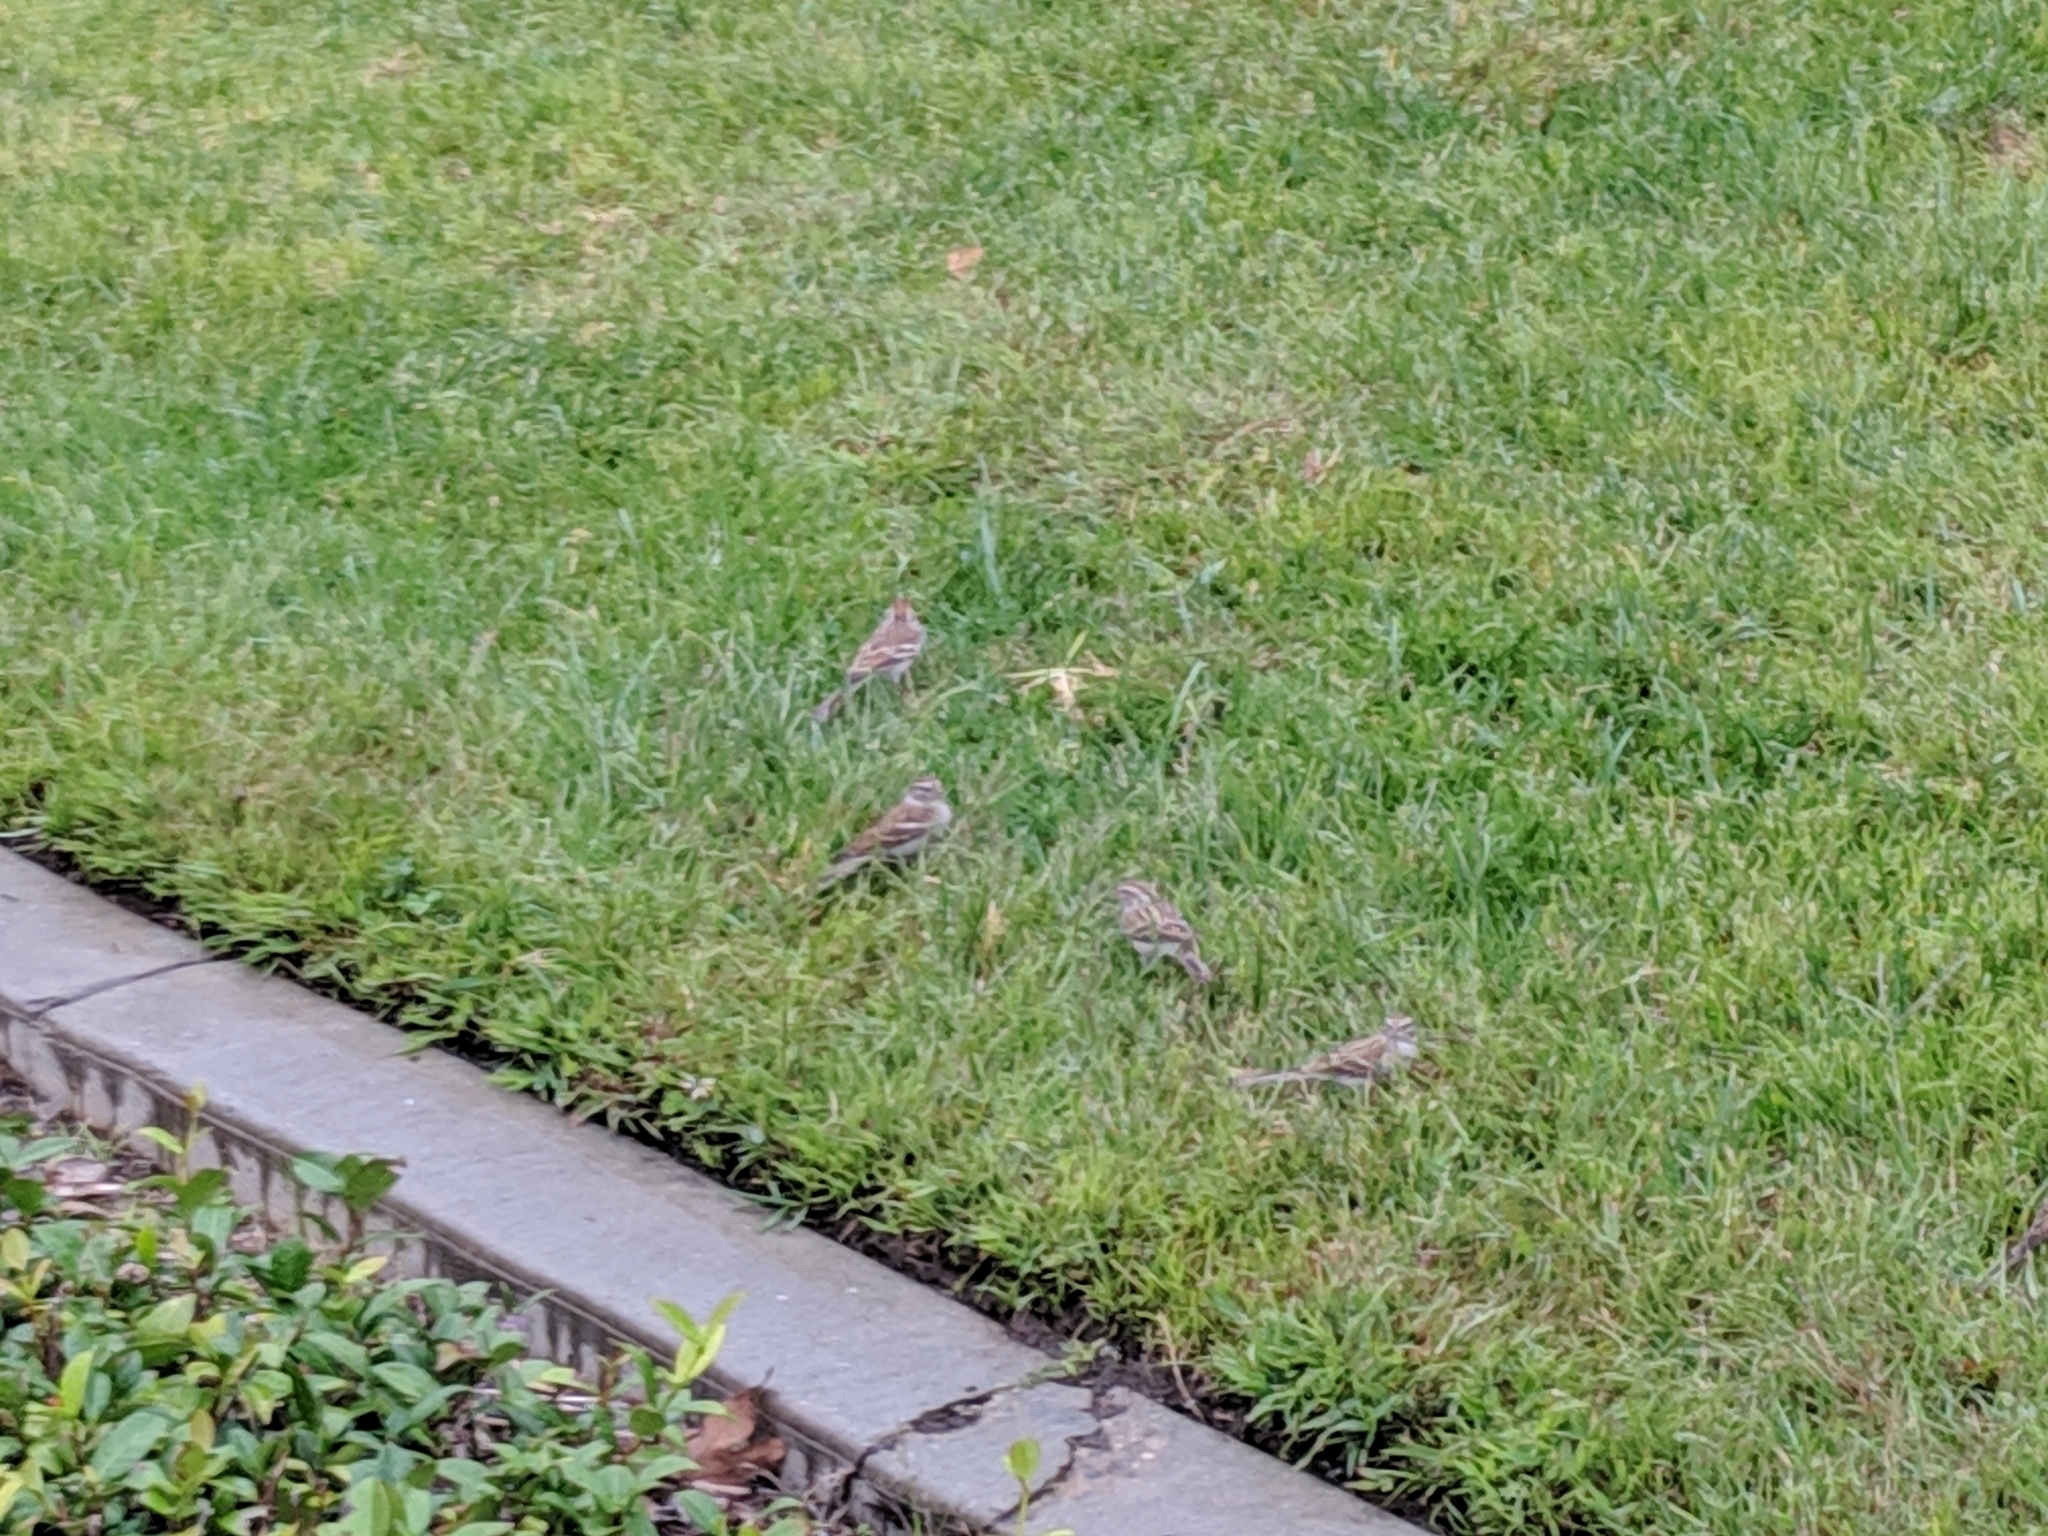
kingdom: Animalia
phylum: Chordata
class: Aves
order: Passeriformes
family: Passerellidae
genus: Spizella
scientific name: Spizella passerina
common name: Chipping sparrow
